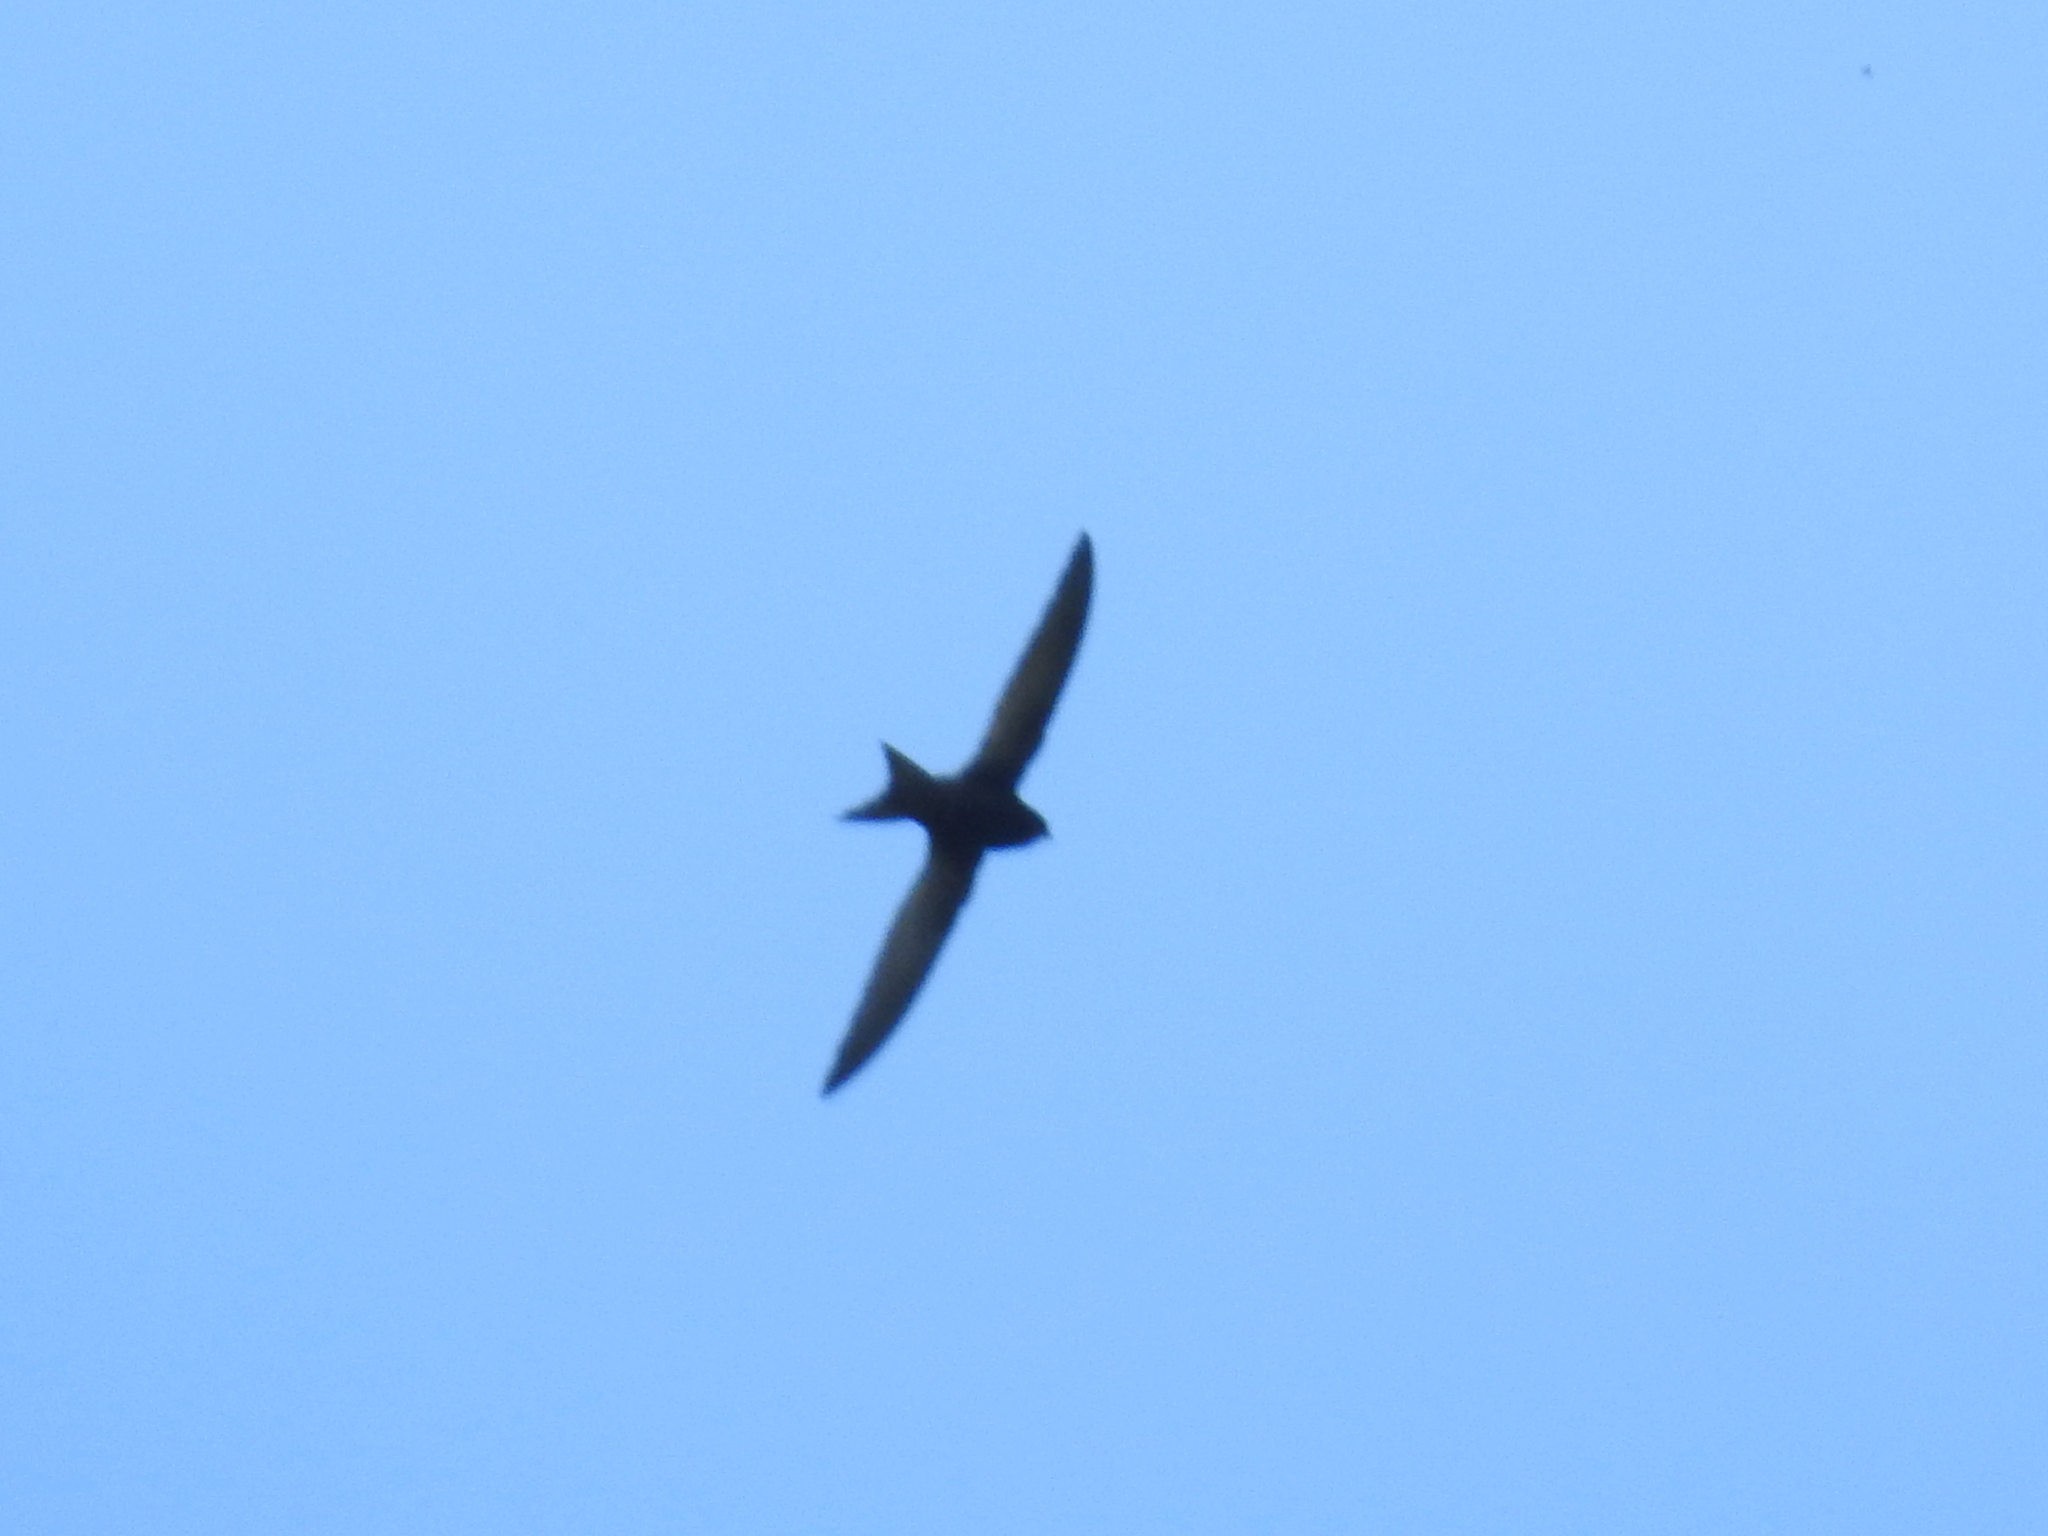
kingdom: Animalia
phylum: Chordata
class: Aves
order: Apodiformes
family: Apodidae
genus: Apus
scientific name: Apus apus
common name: Common swift
